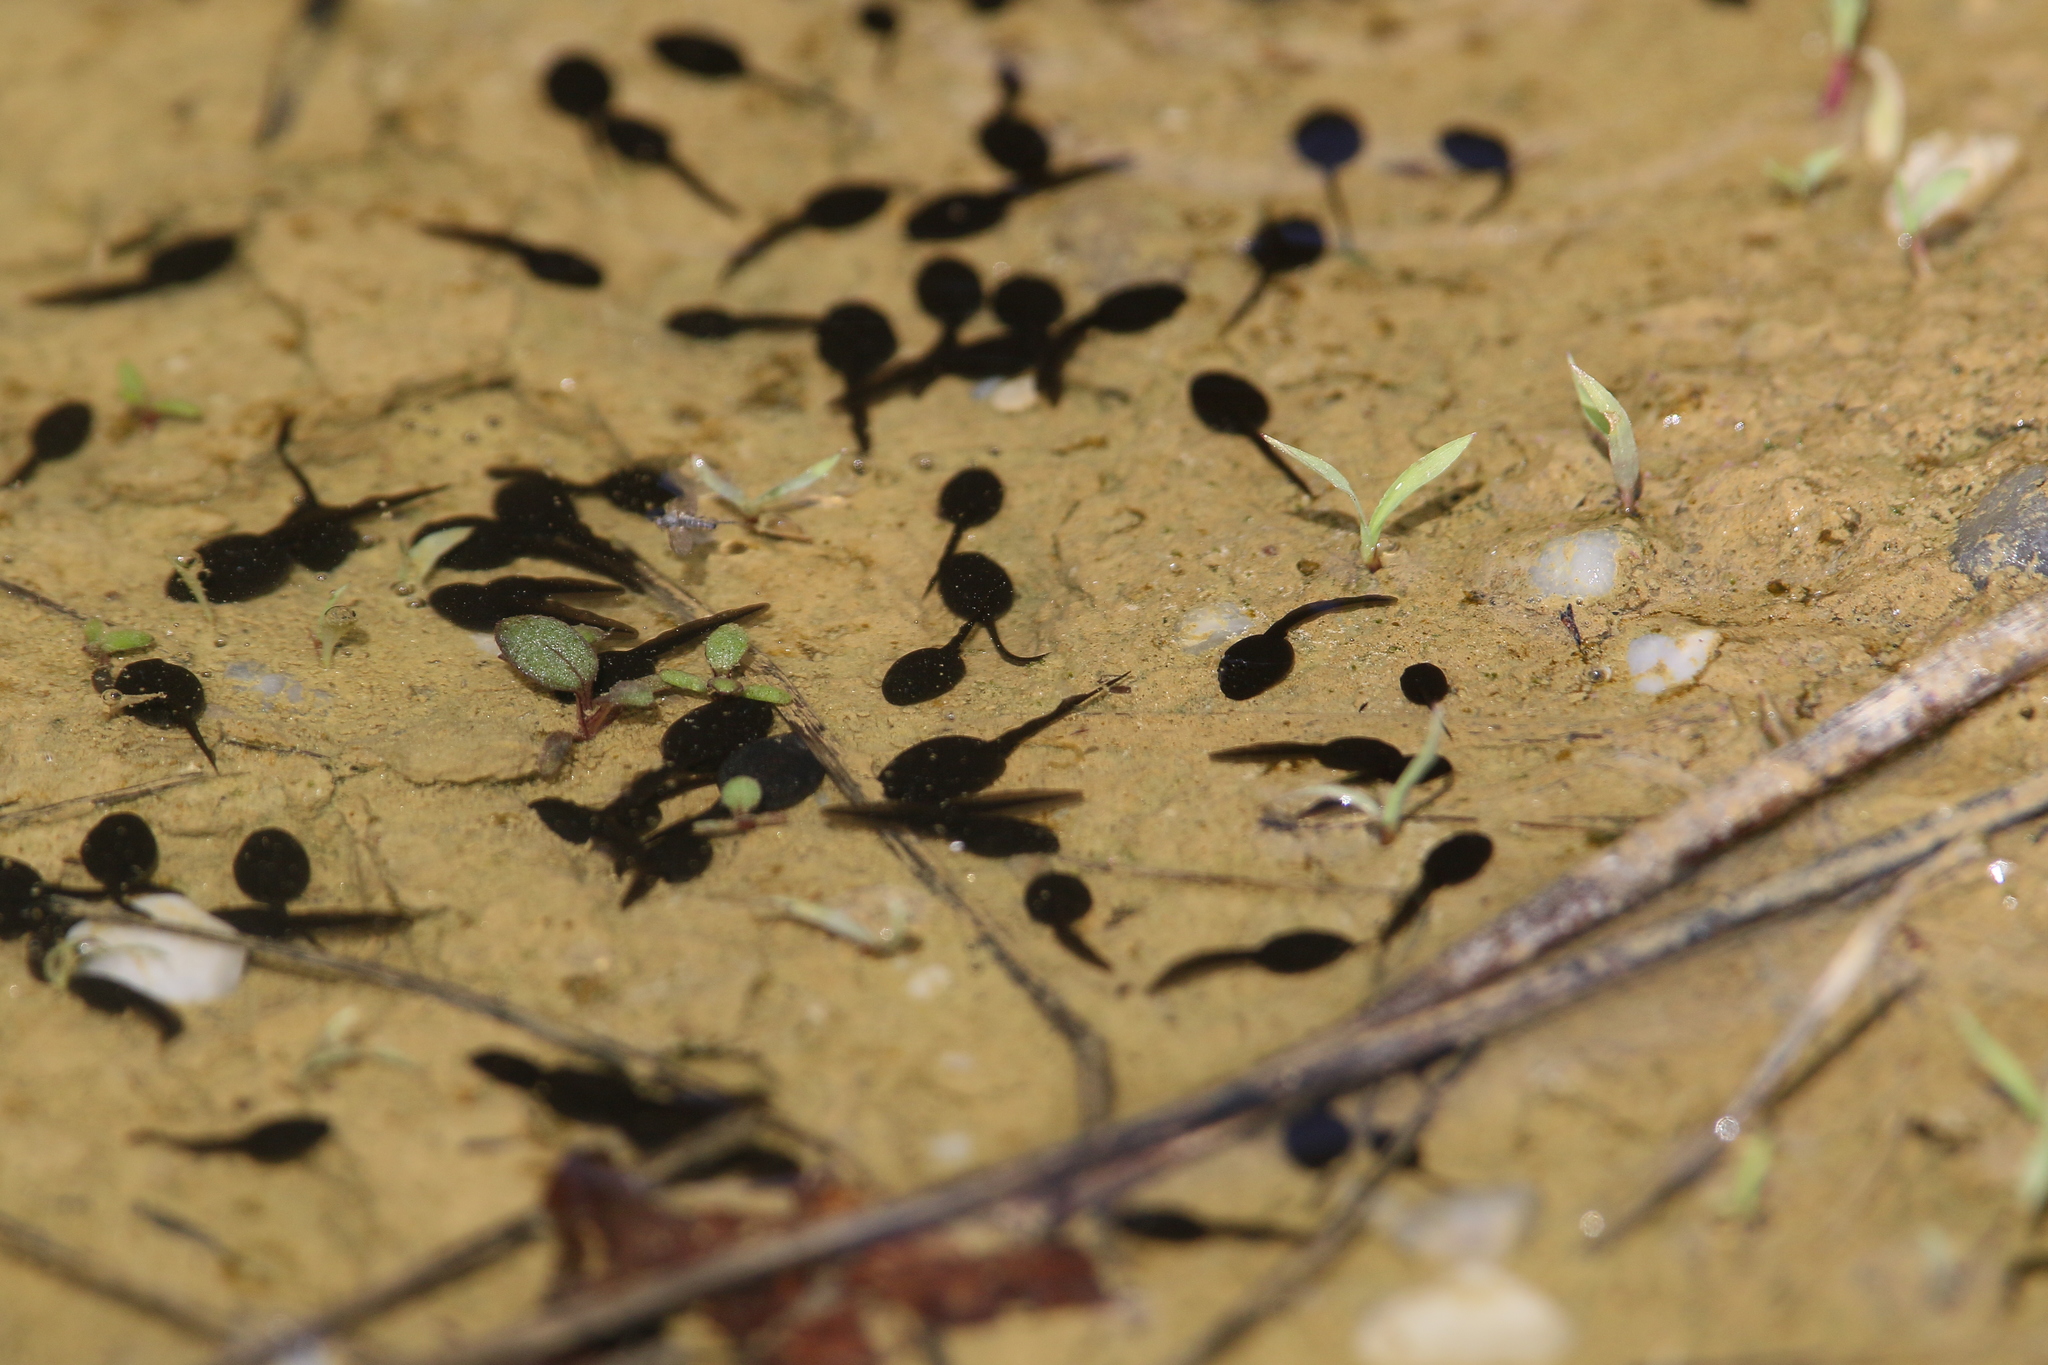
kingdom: Animalia
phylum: Chordata
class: Amphibia
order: Anura
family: Bufonidae
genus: Epidalea
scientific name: Epidalea calamita
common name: Natterjack toad
